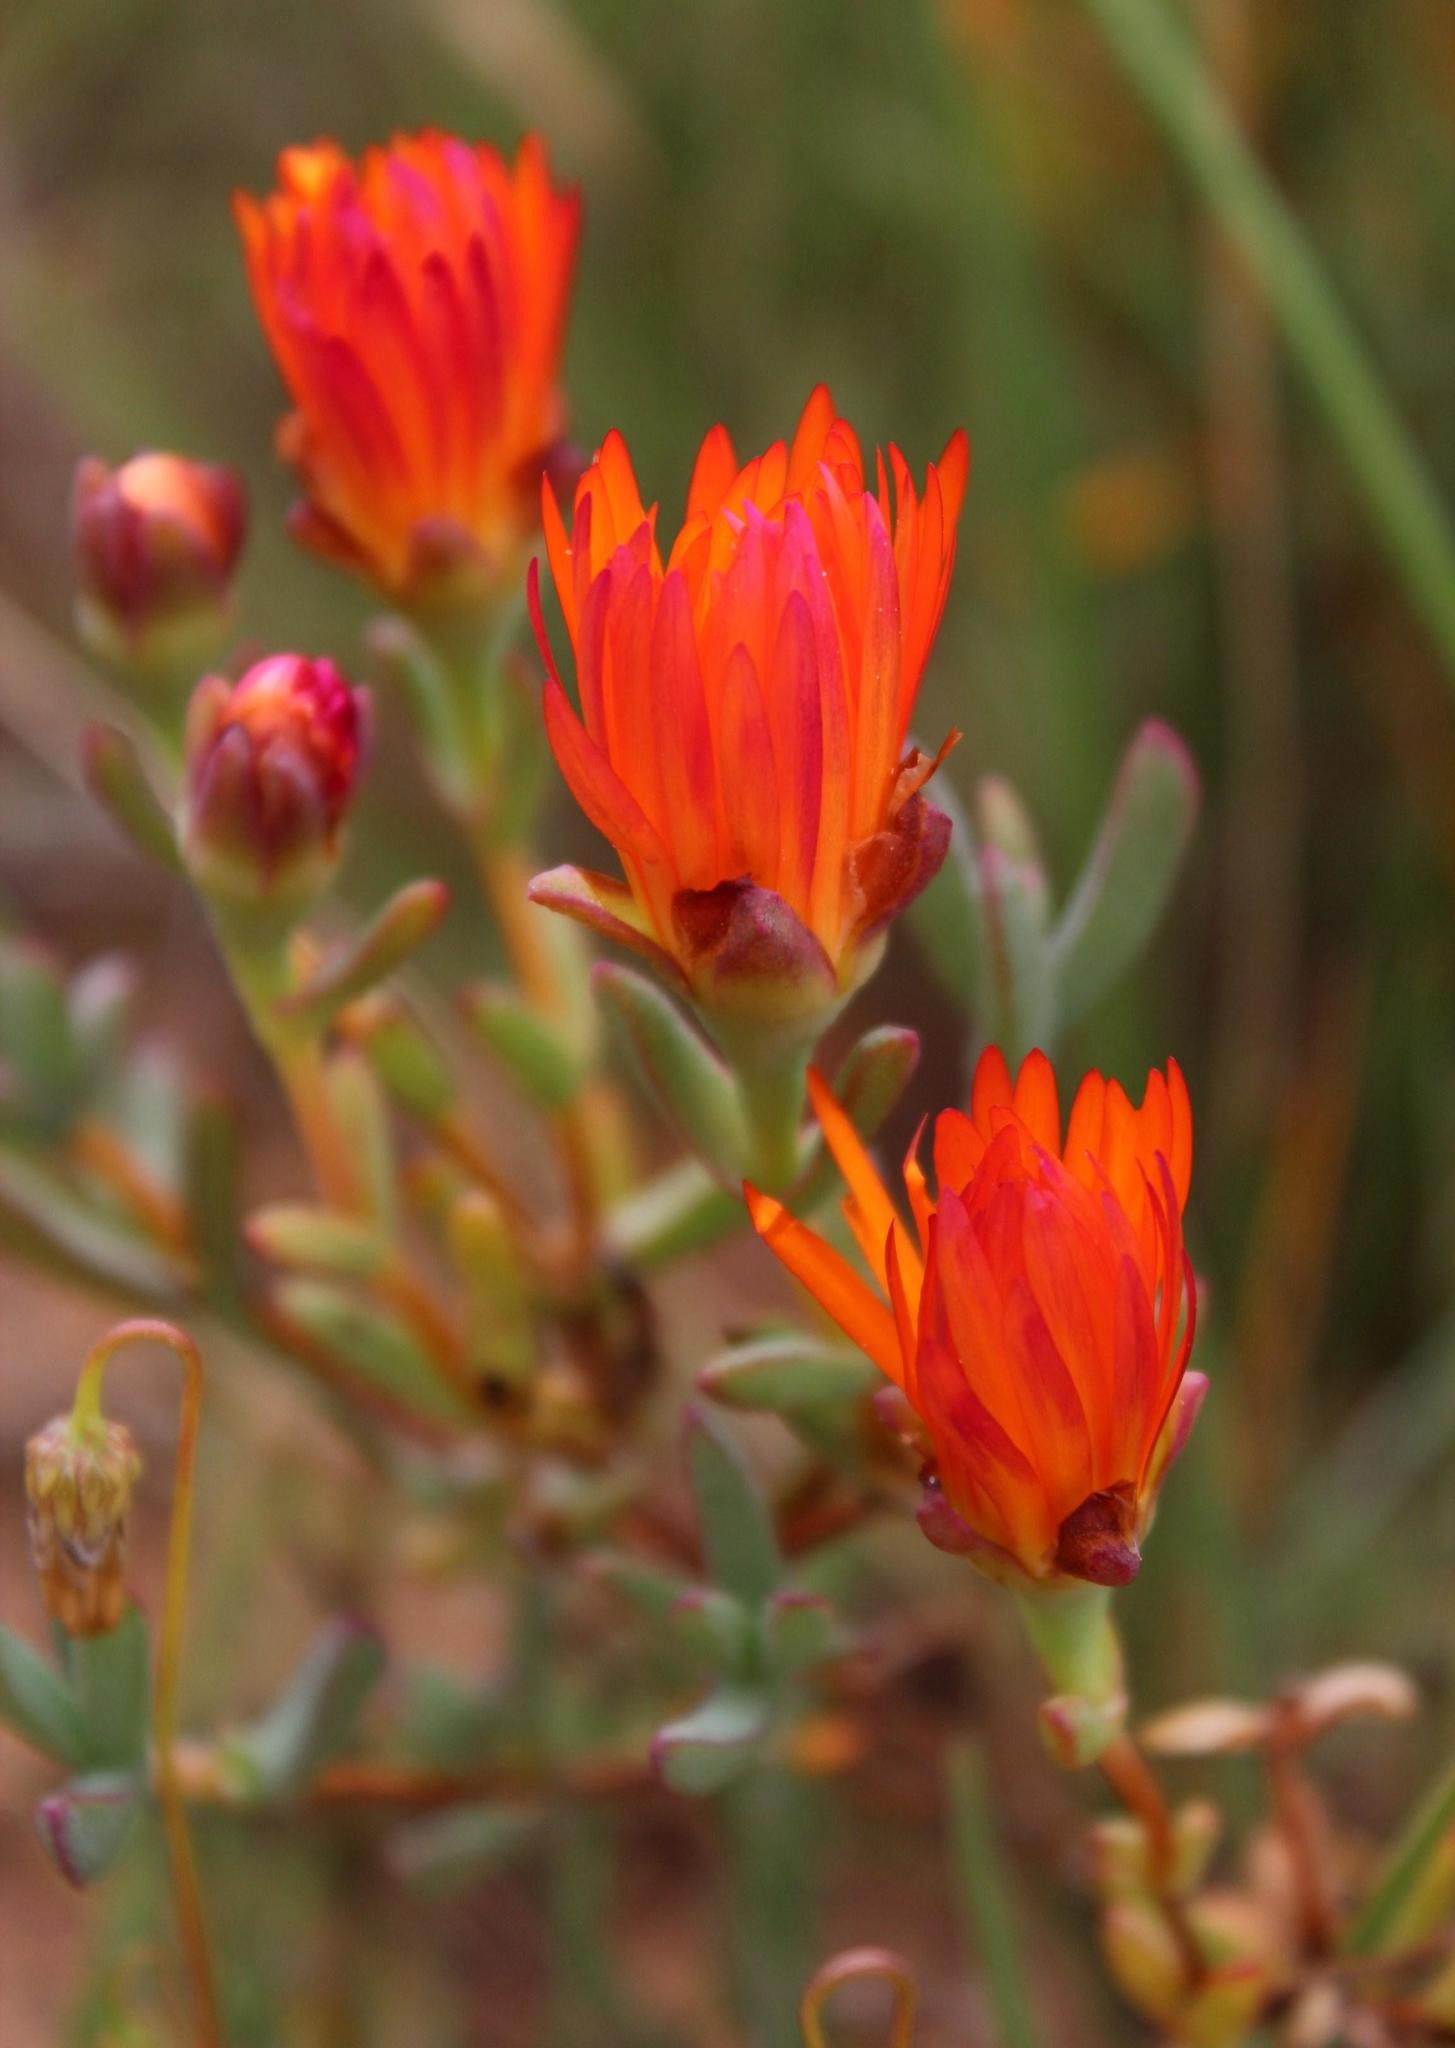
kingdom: Plantae
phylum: Tracheophyta
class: Magnoliopsida
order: Caryophyllales
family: Aizoaceae
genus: Lampranthus
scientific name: Lampranthus aureus
